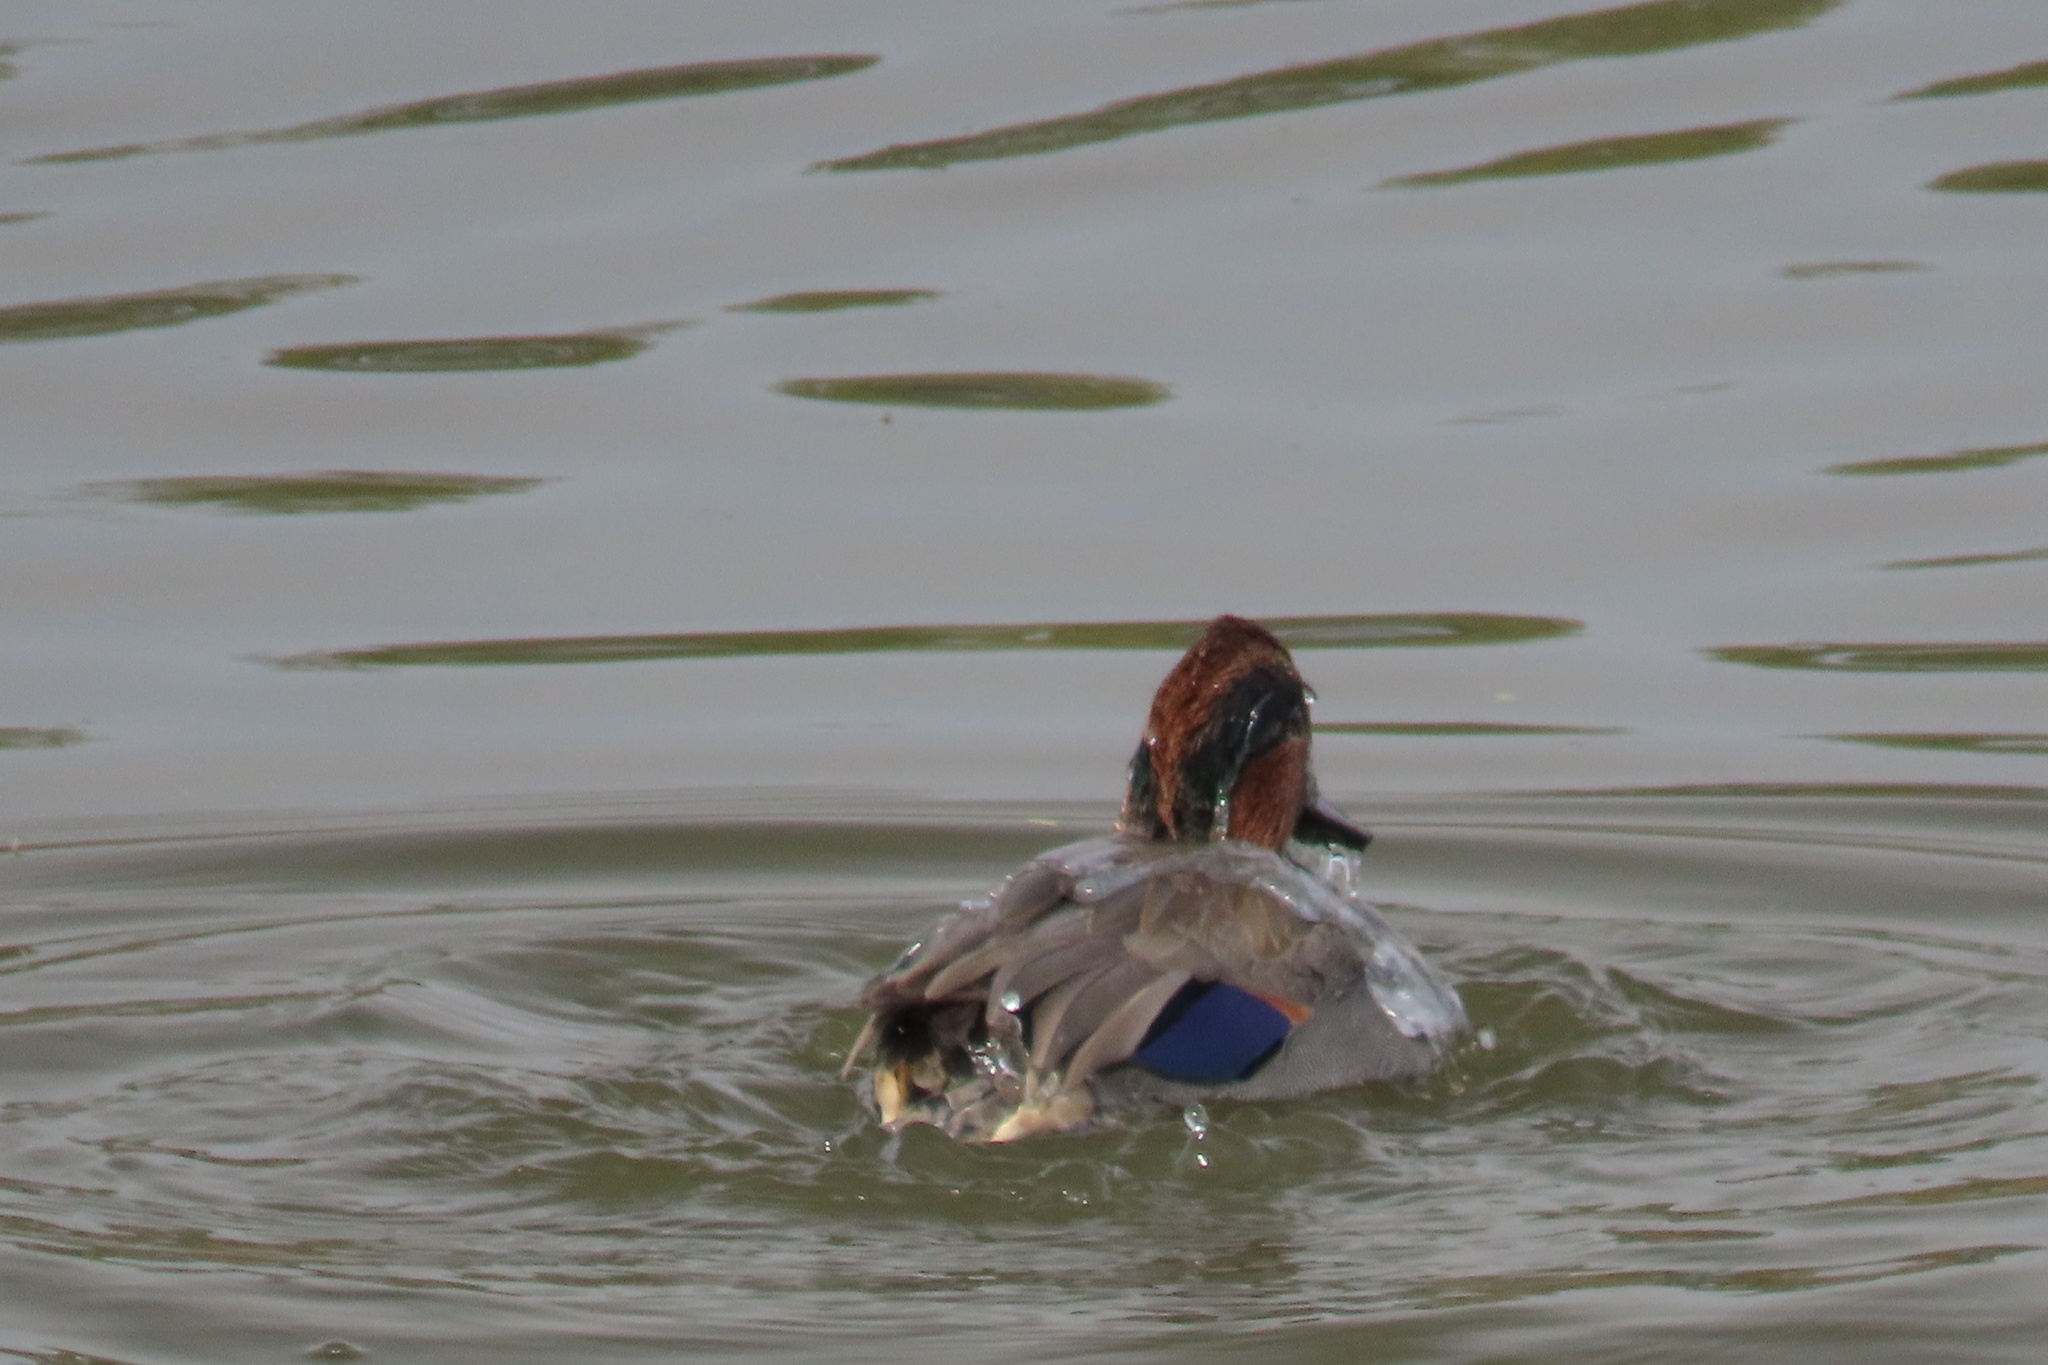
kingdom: Animalia
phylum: Chordata
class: Aves
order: Anseriformes
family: Anatidae
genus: Anas
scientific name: Anas crecca
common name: Eurasian teal
